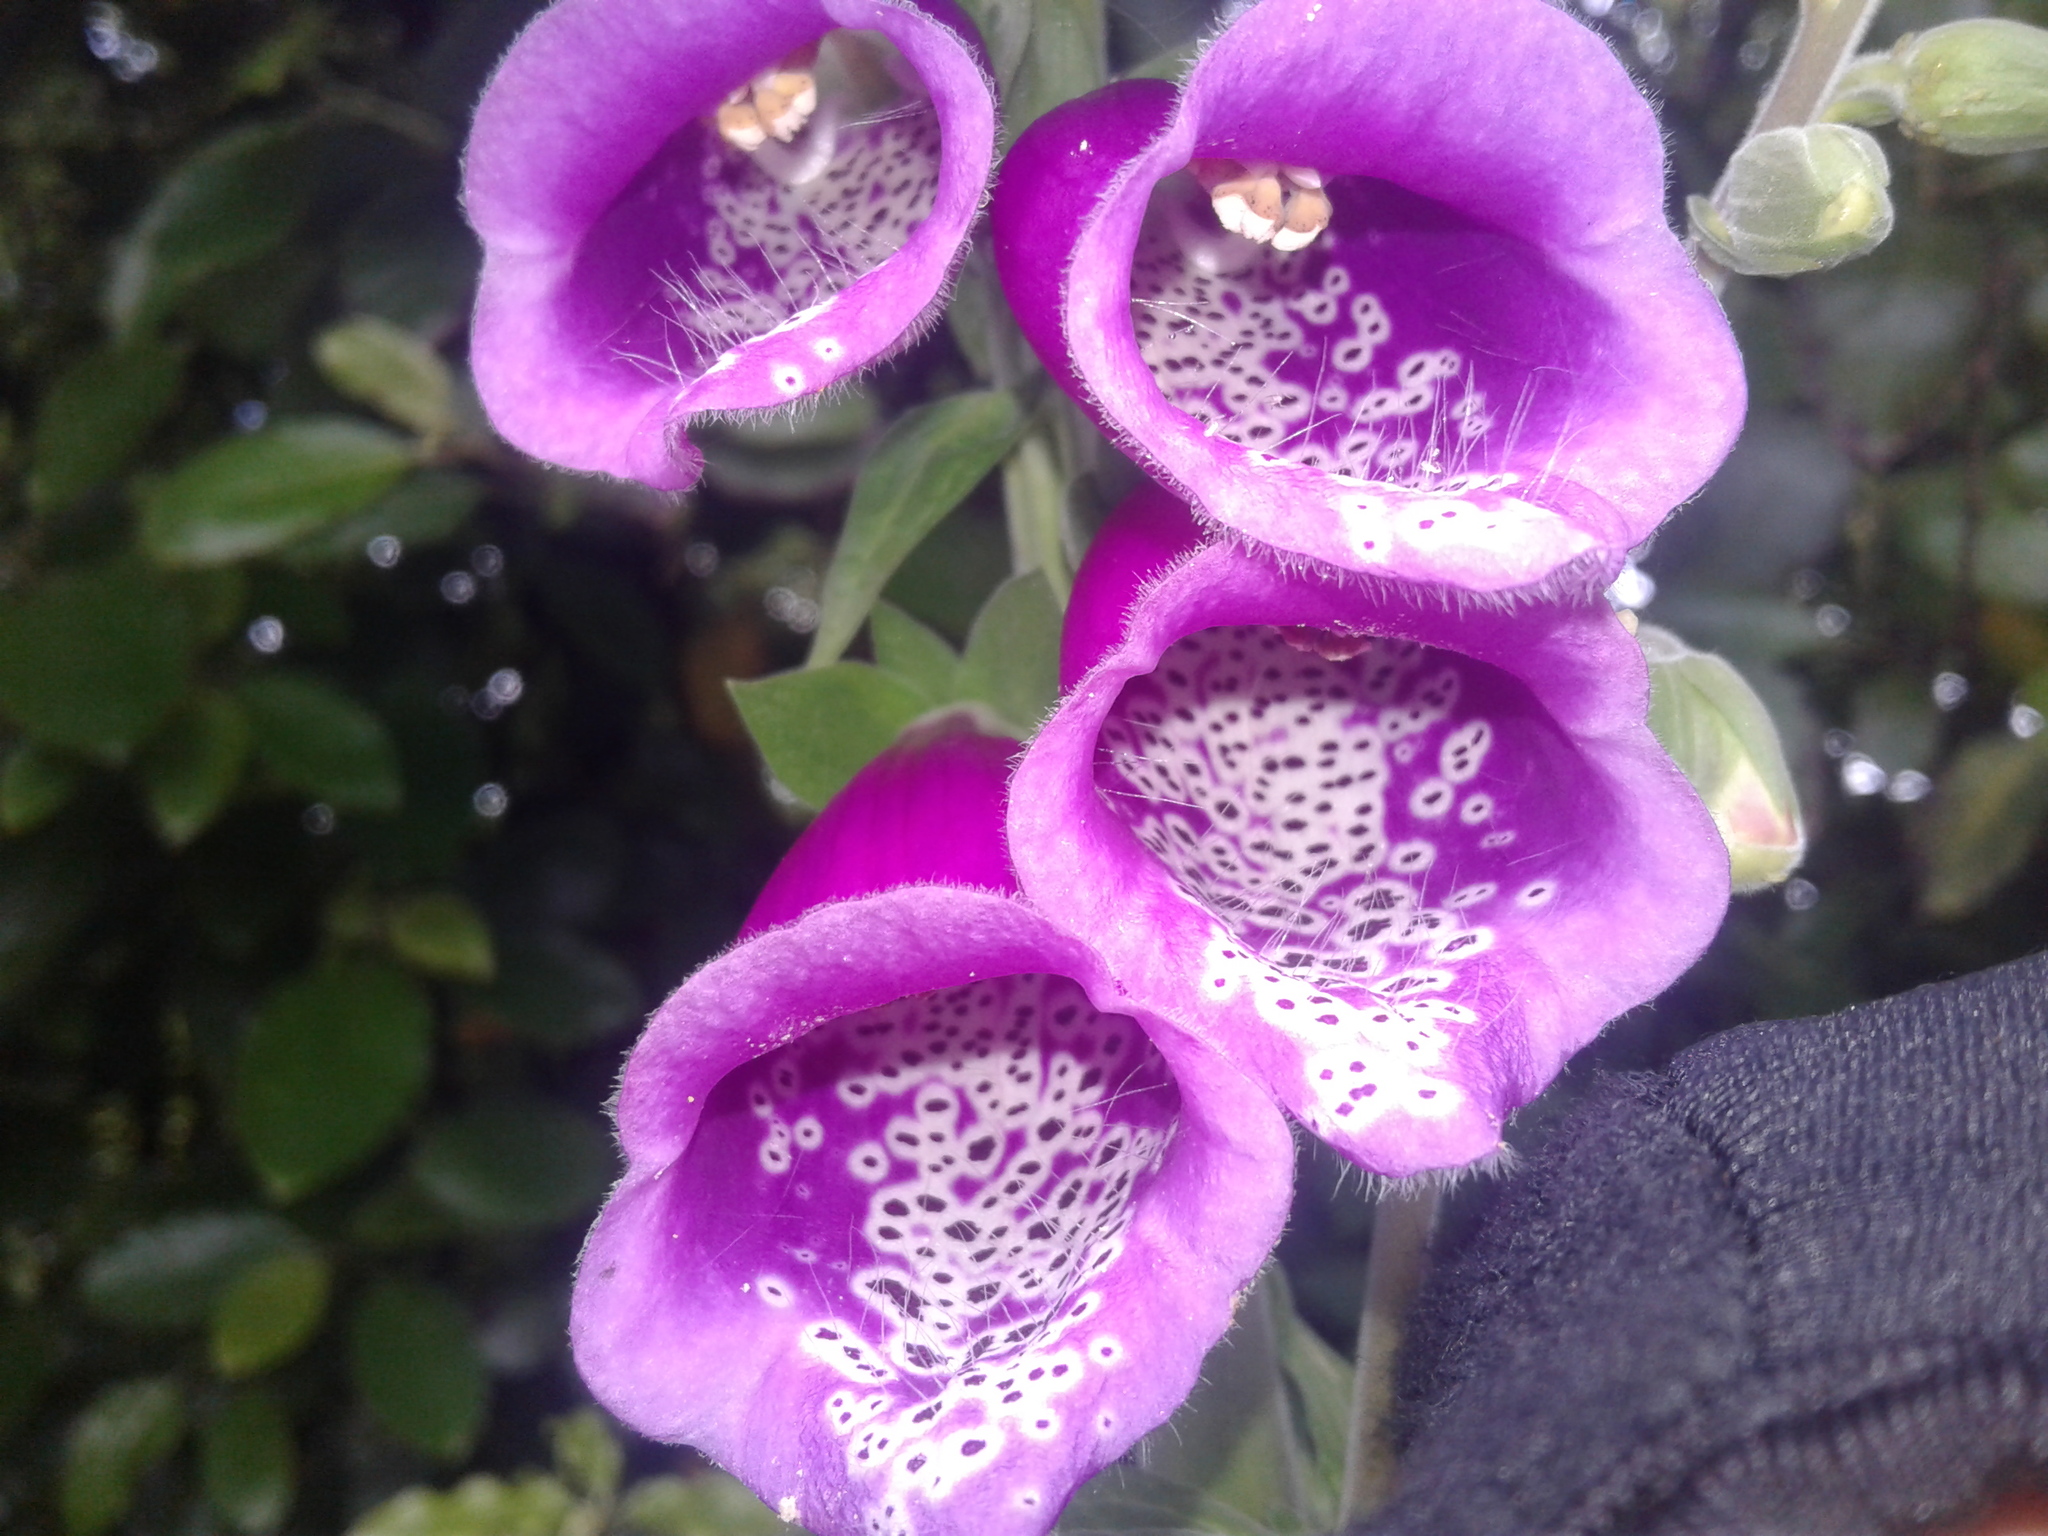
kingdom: Plantae
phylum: Tracheophyta
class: Magnoliopsida
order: Lamiales
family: Plantaginaceae
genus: Digitalis
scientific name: Digitalis purpurea
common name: Foxglove
